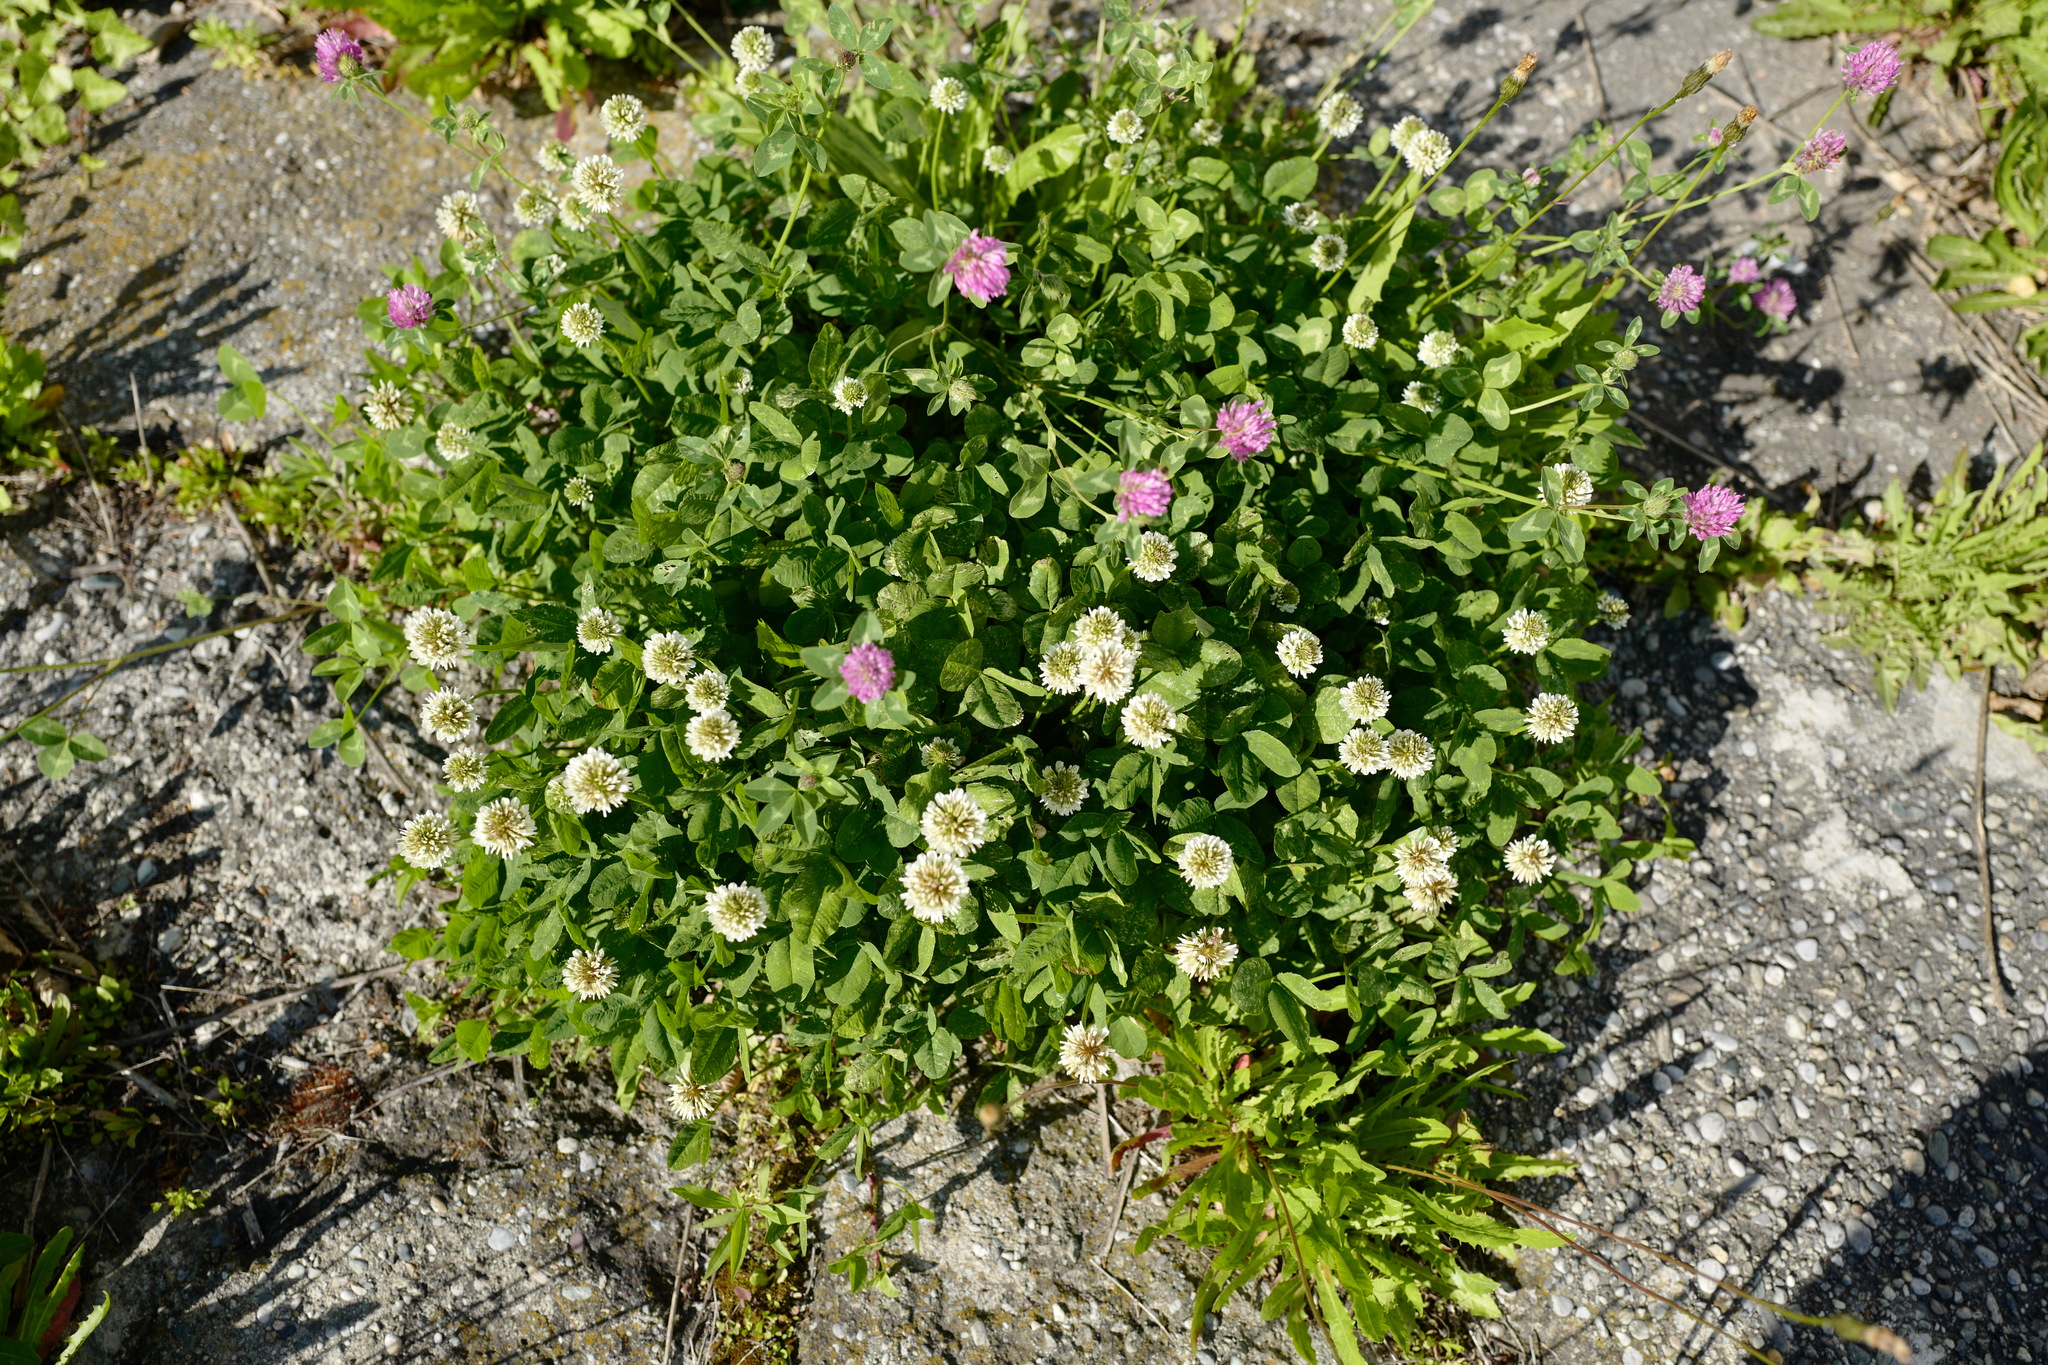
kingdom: Plantae
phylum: Tracheophyta
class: Magnoliopsida
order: Fabales
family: Fabaceae
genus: Trifolium
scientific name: Trifolium repens
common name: White clover
